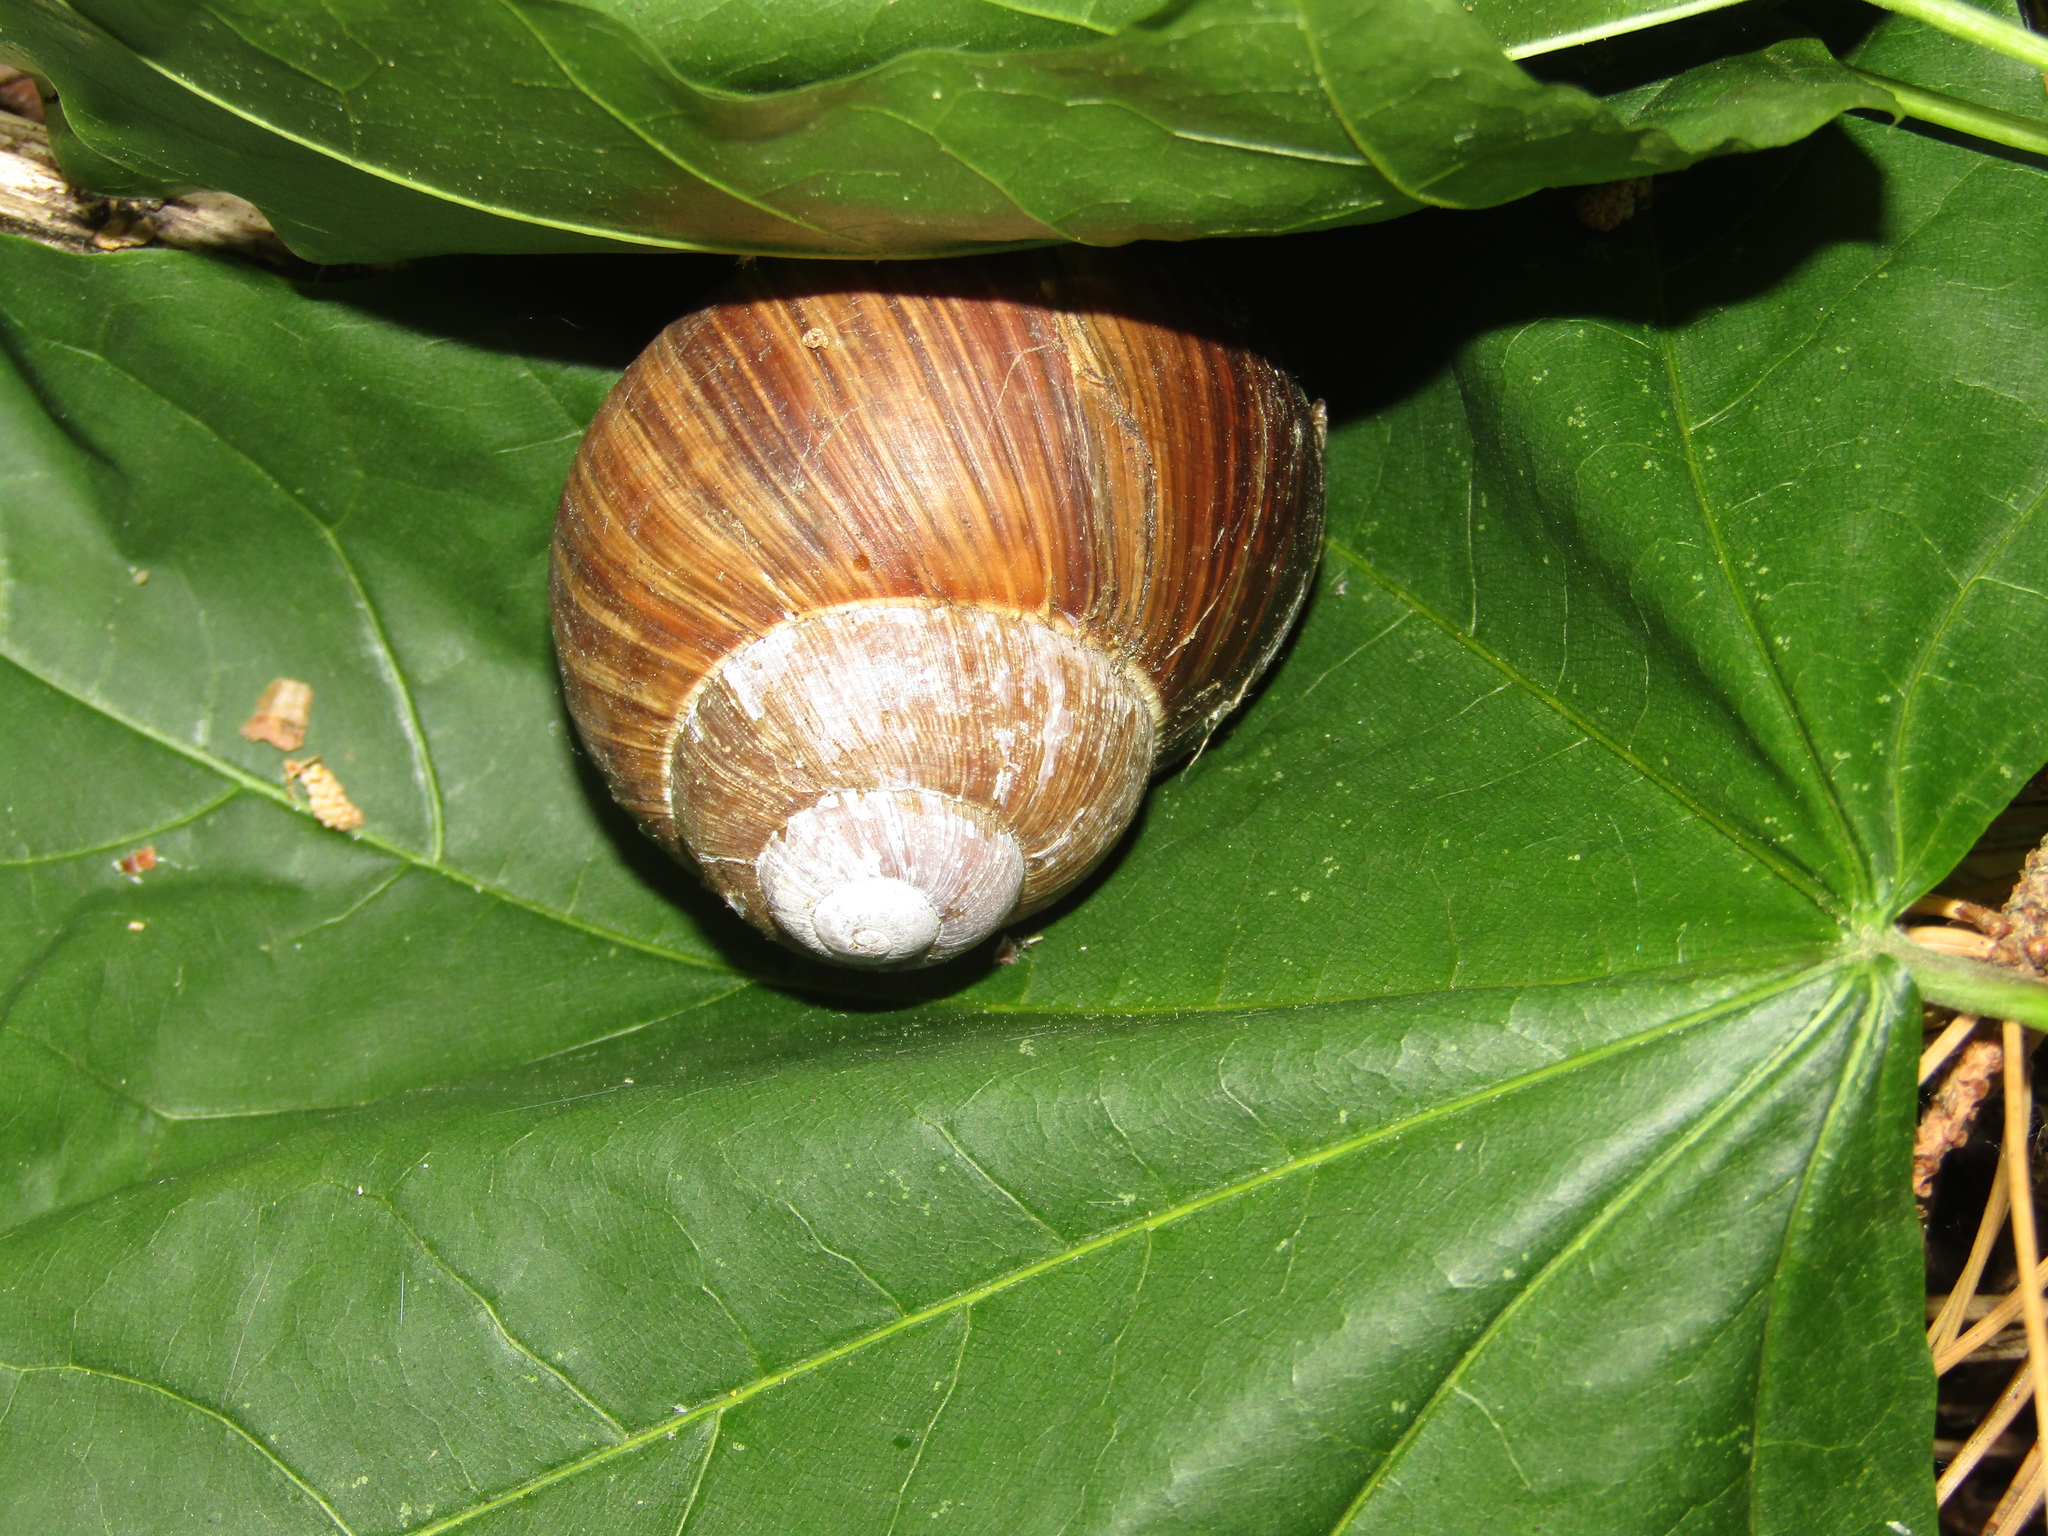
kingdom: Animalia
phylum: Mollusca
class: Gastropoda
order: Stylommatophora
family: Helicidae
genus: Helix
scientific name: Helix pomatia
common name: Roman snail
